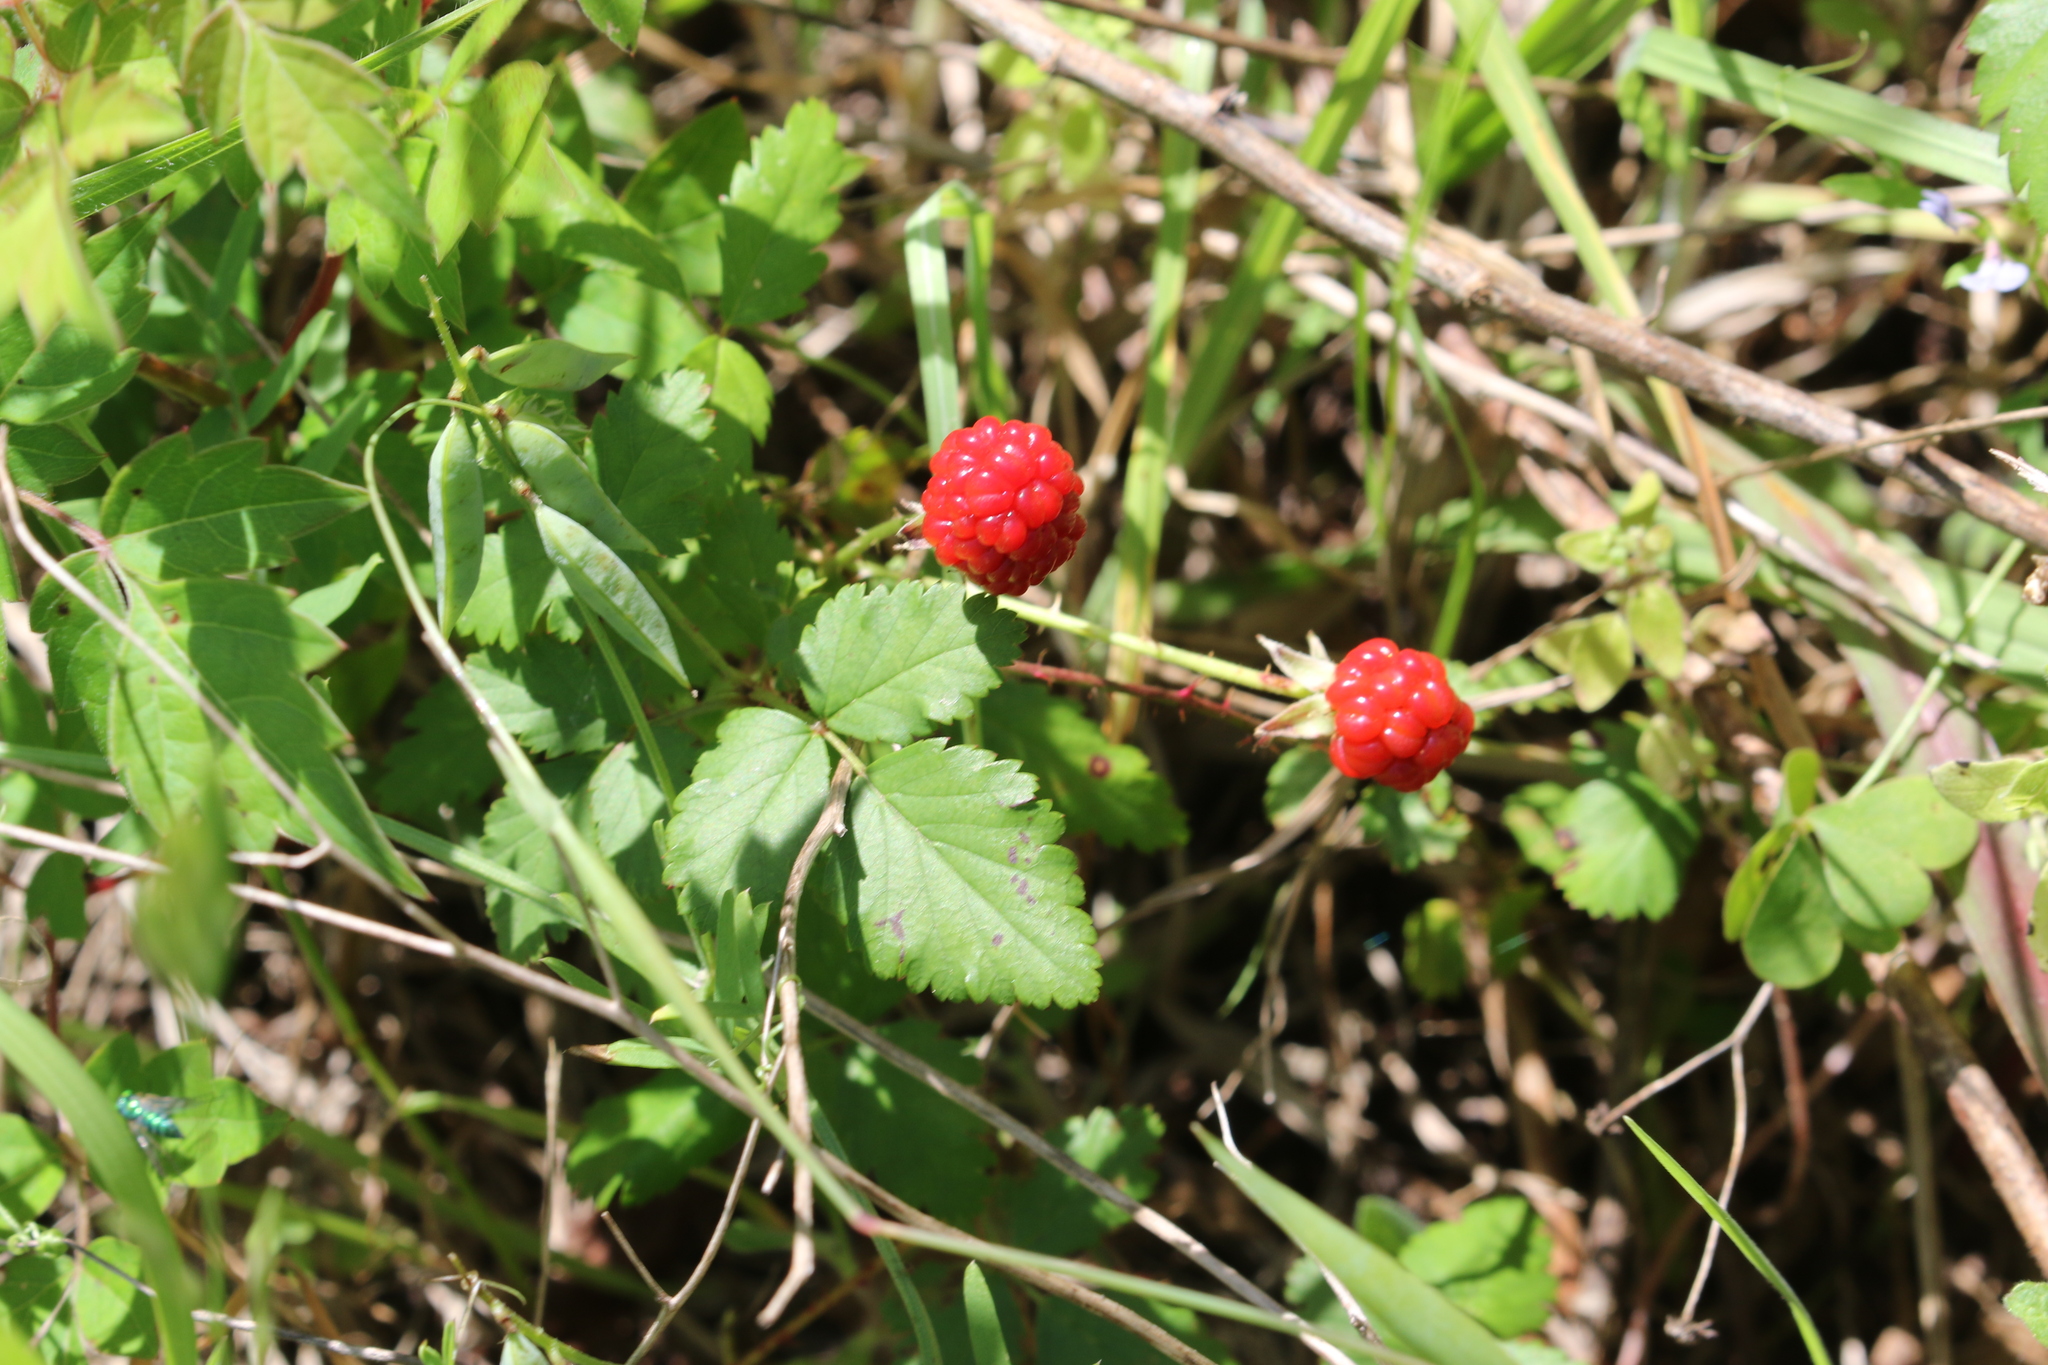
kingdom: Plantae
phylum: Tracheophyta
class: Magnoliopsida
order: Rosales
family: Rosaceae
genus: Rubus
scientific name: Rubus trivialis
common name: Southern dewberry
